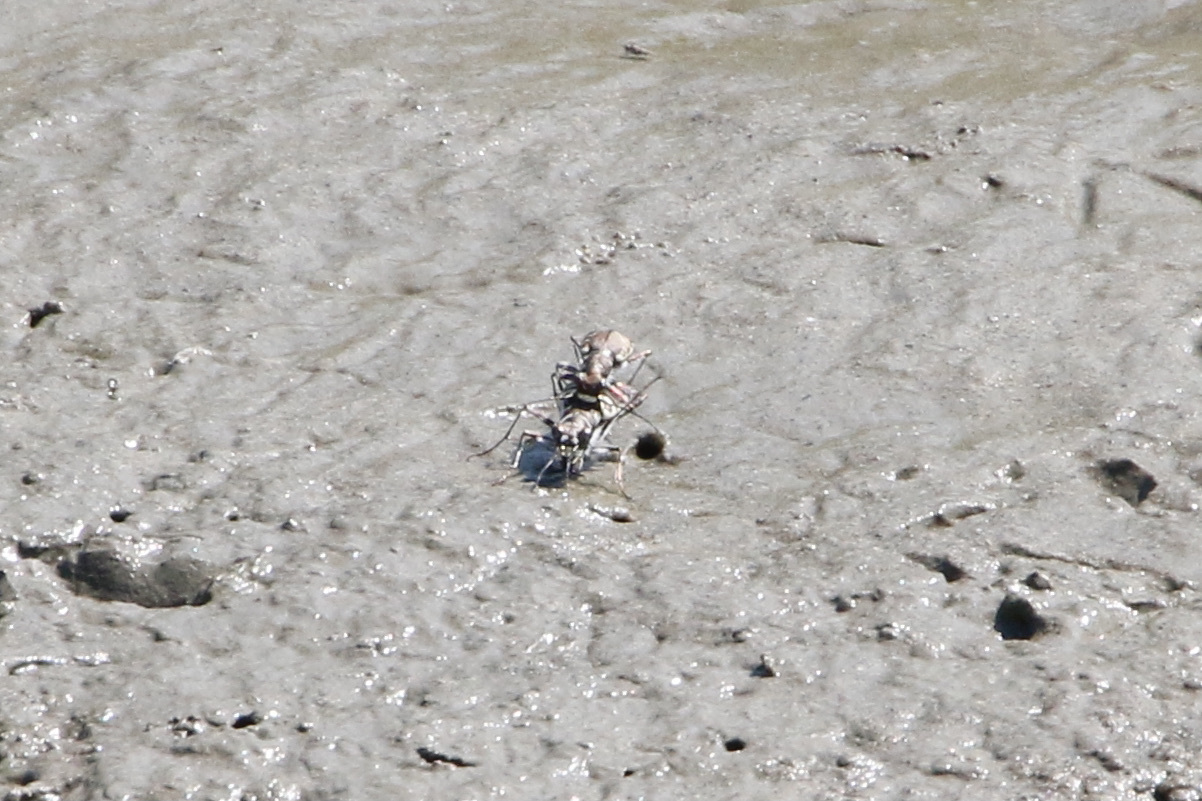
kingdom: Animalia
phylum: Arthropoda
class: Insecta
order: Coleoptera
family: Carabidae
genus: Cicindela
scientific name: Cicindela hirticollis
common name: Hairy-necked tiger beetle
